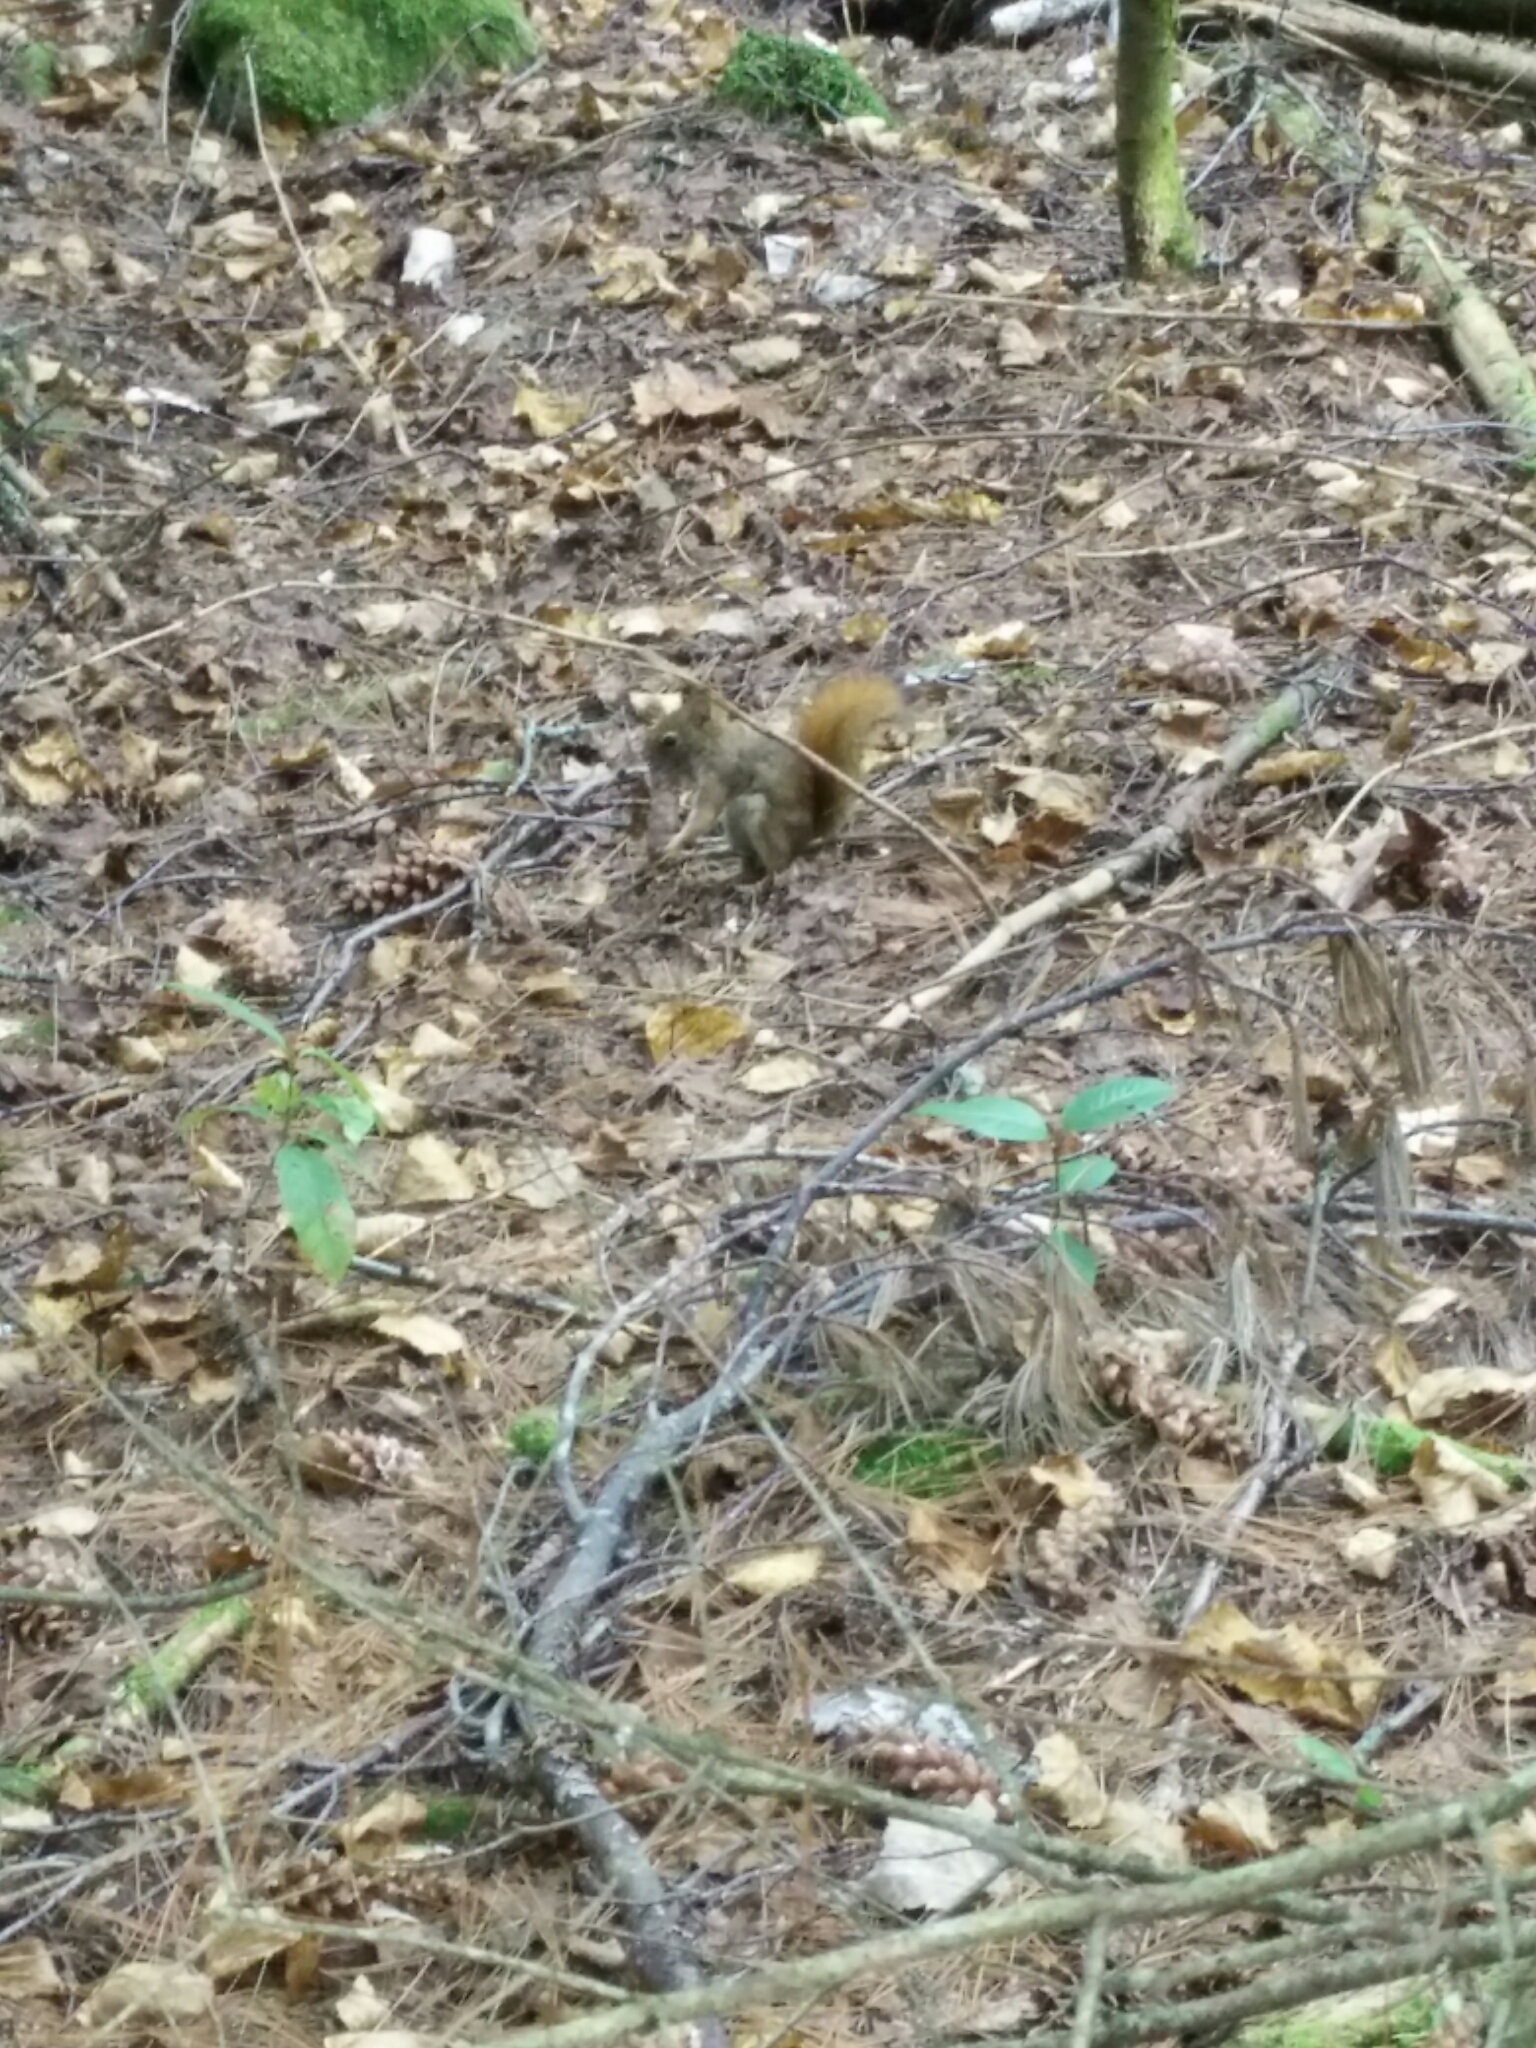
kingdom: Animalia
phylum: Chordata
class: Mammalia
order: Rodentia
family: Sciuridae
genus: Tamiasciurus
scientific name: Tamiasciurus hudsonicus
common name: Red squirrel
